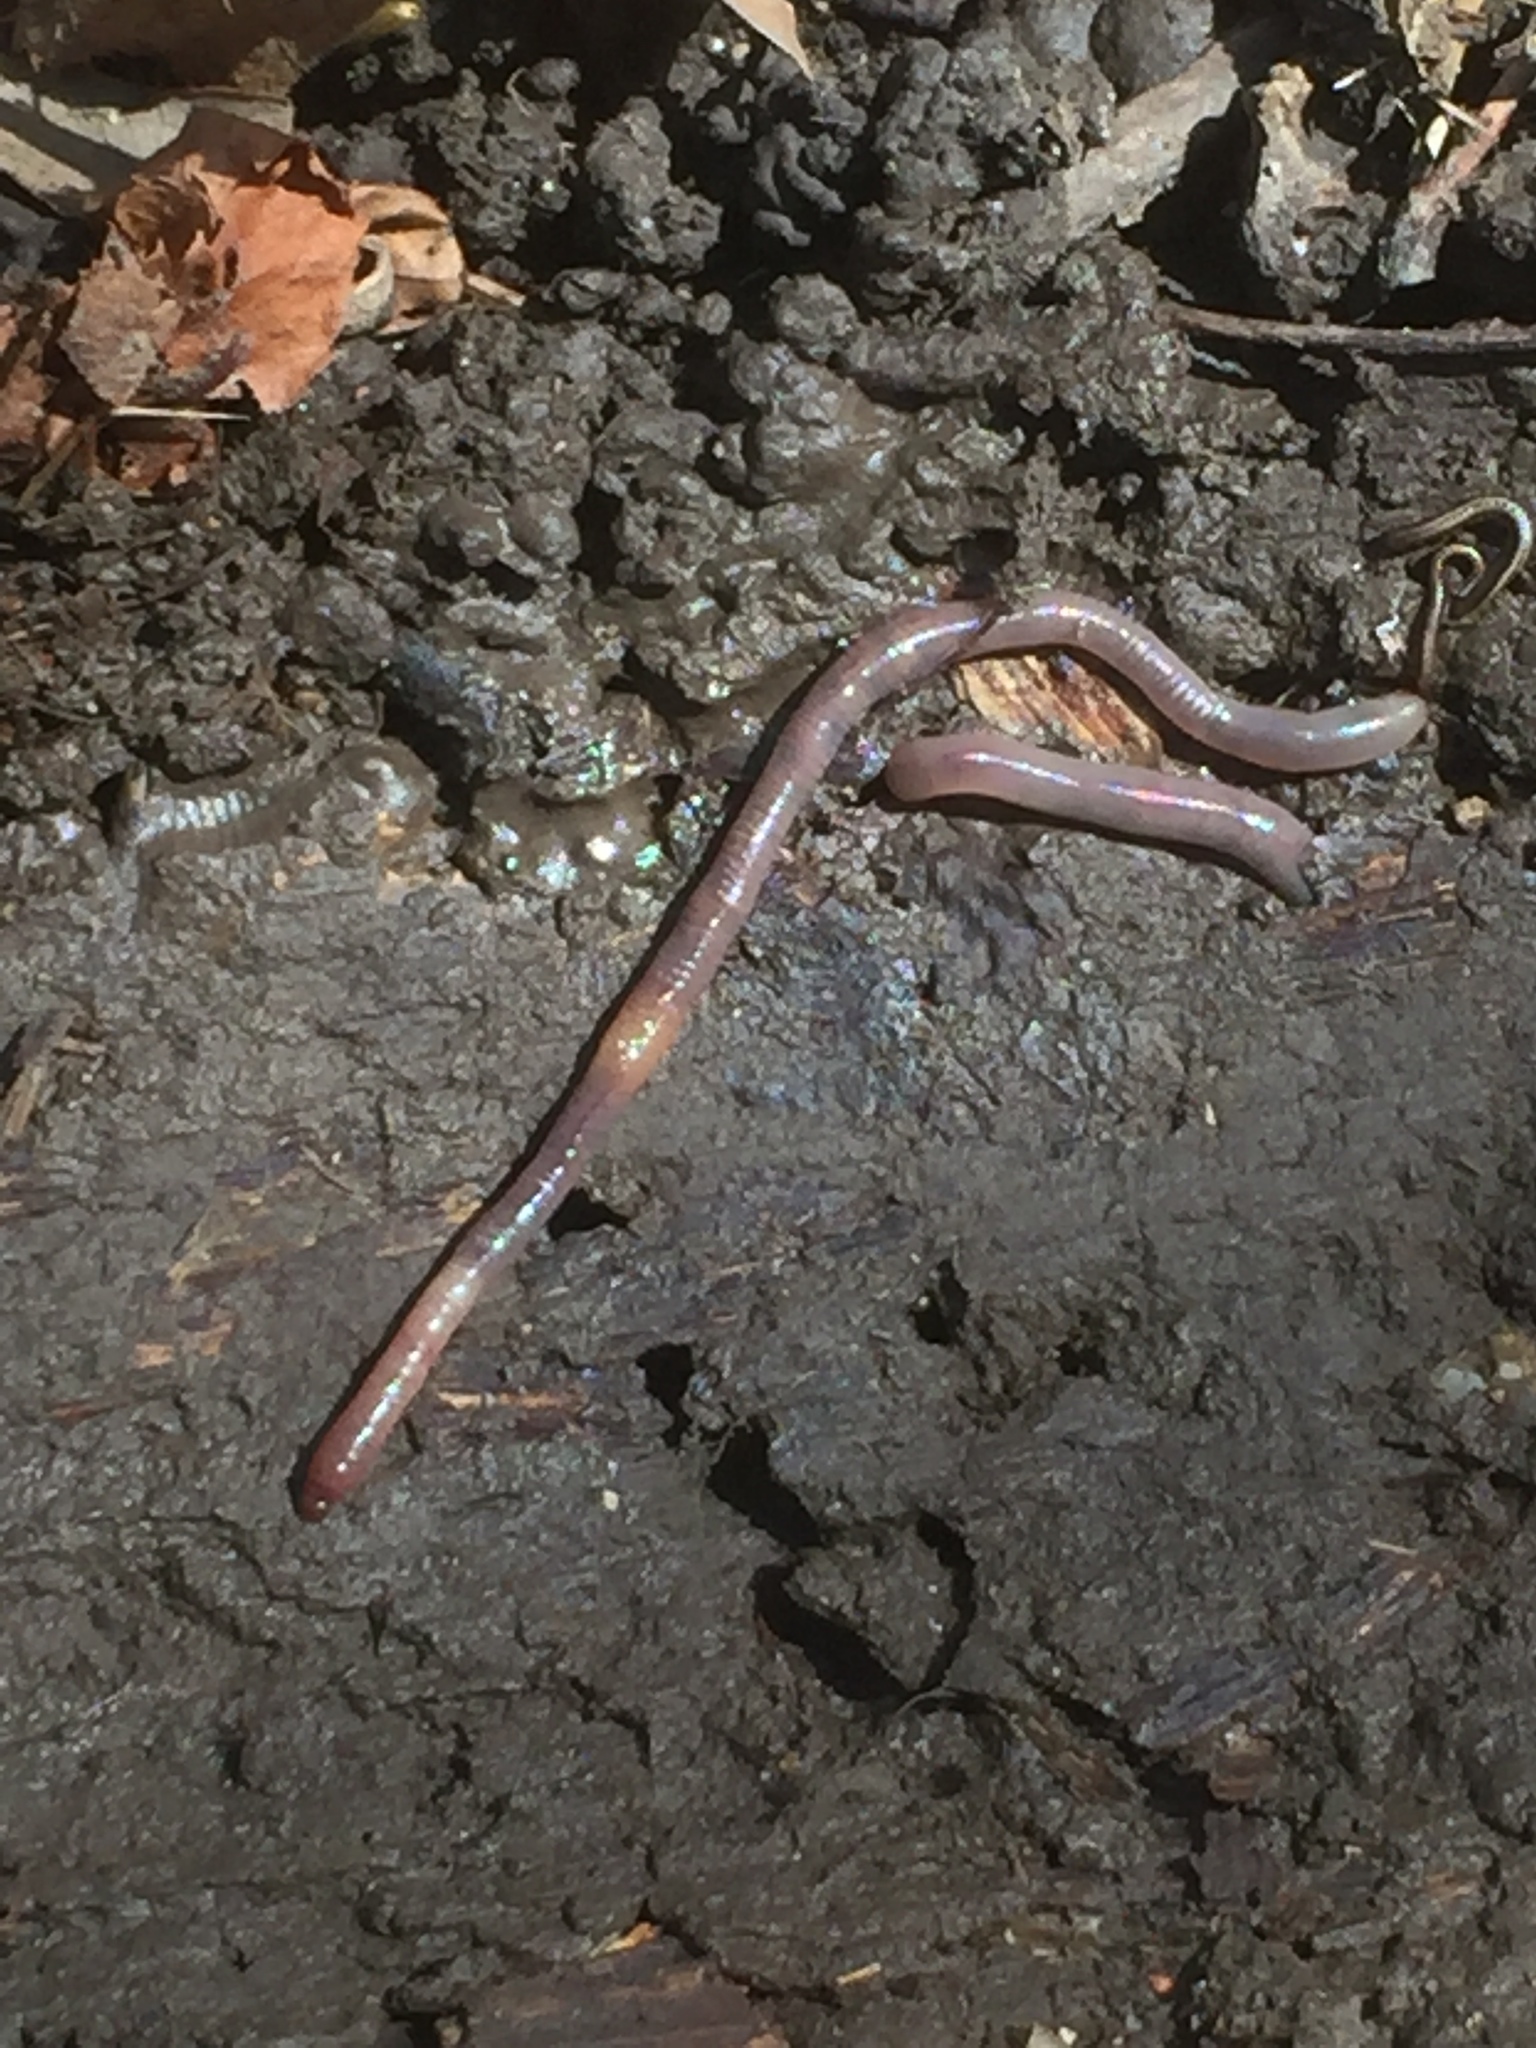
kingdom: Animalia
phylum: Annelida
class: Clitellata
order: Crassiclitellata
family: Lumbricidae
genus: Lumbricus
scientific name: Lumbricus terrestris
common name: Common earthworm
